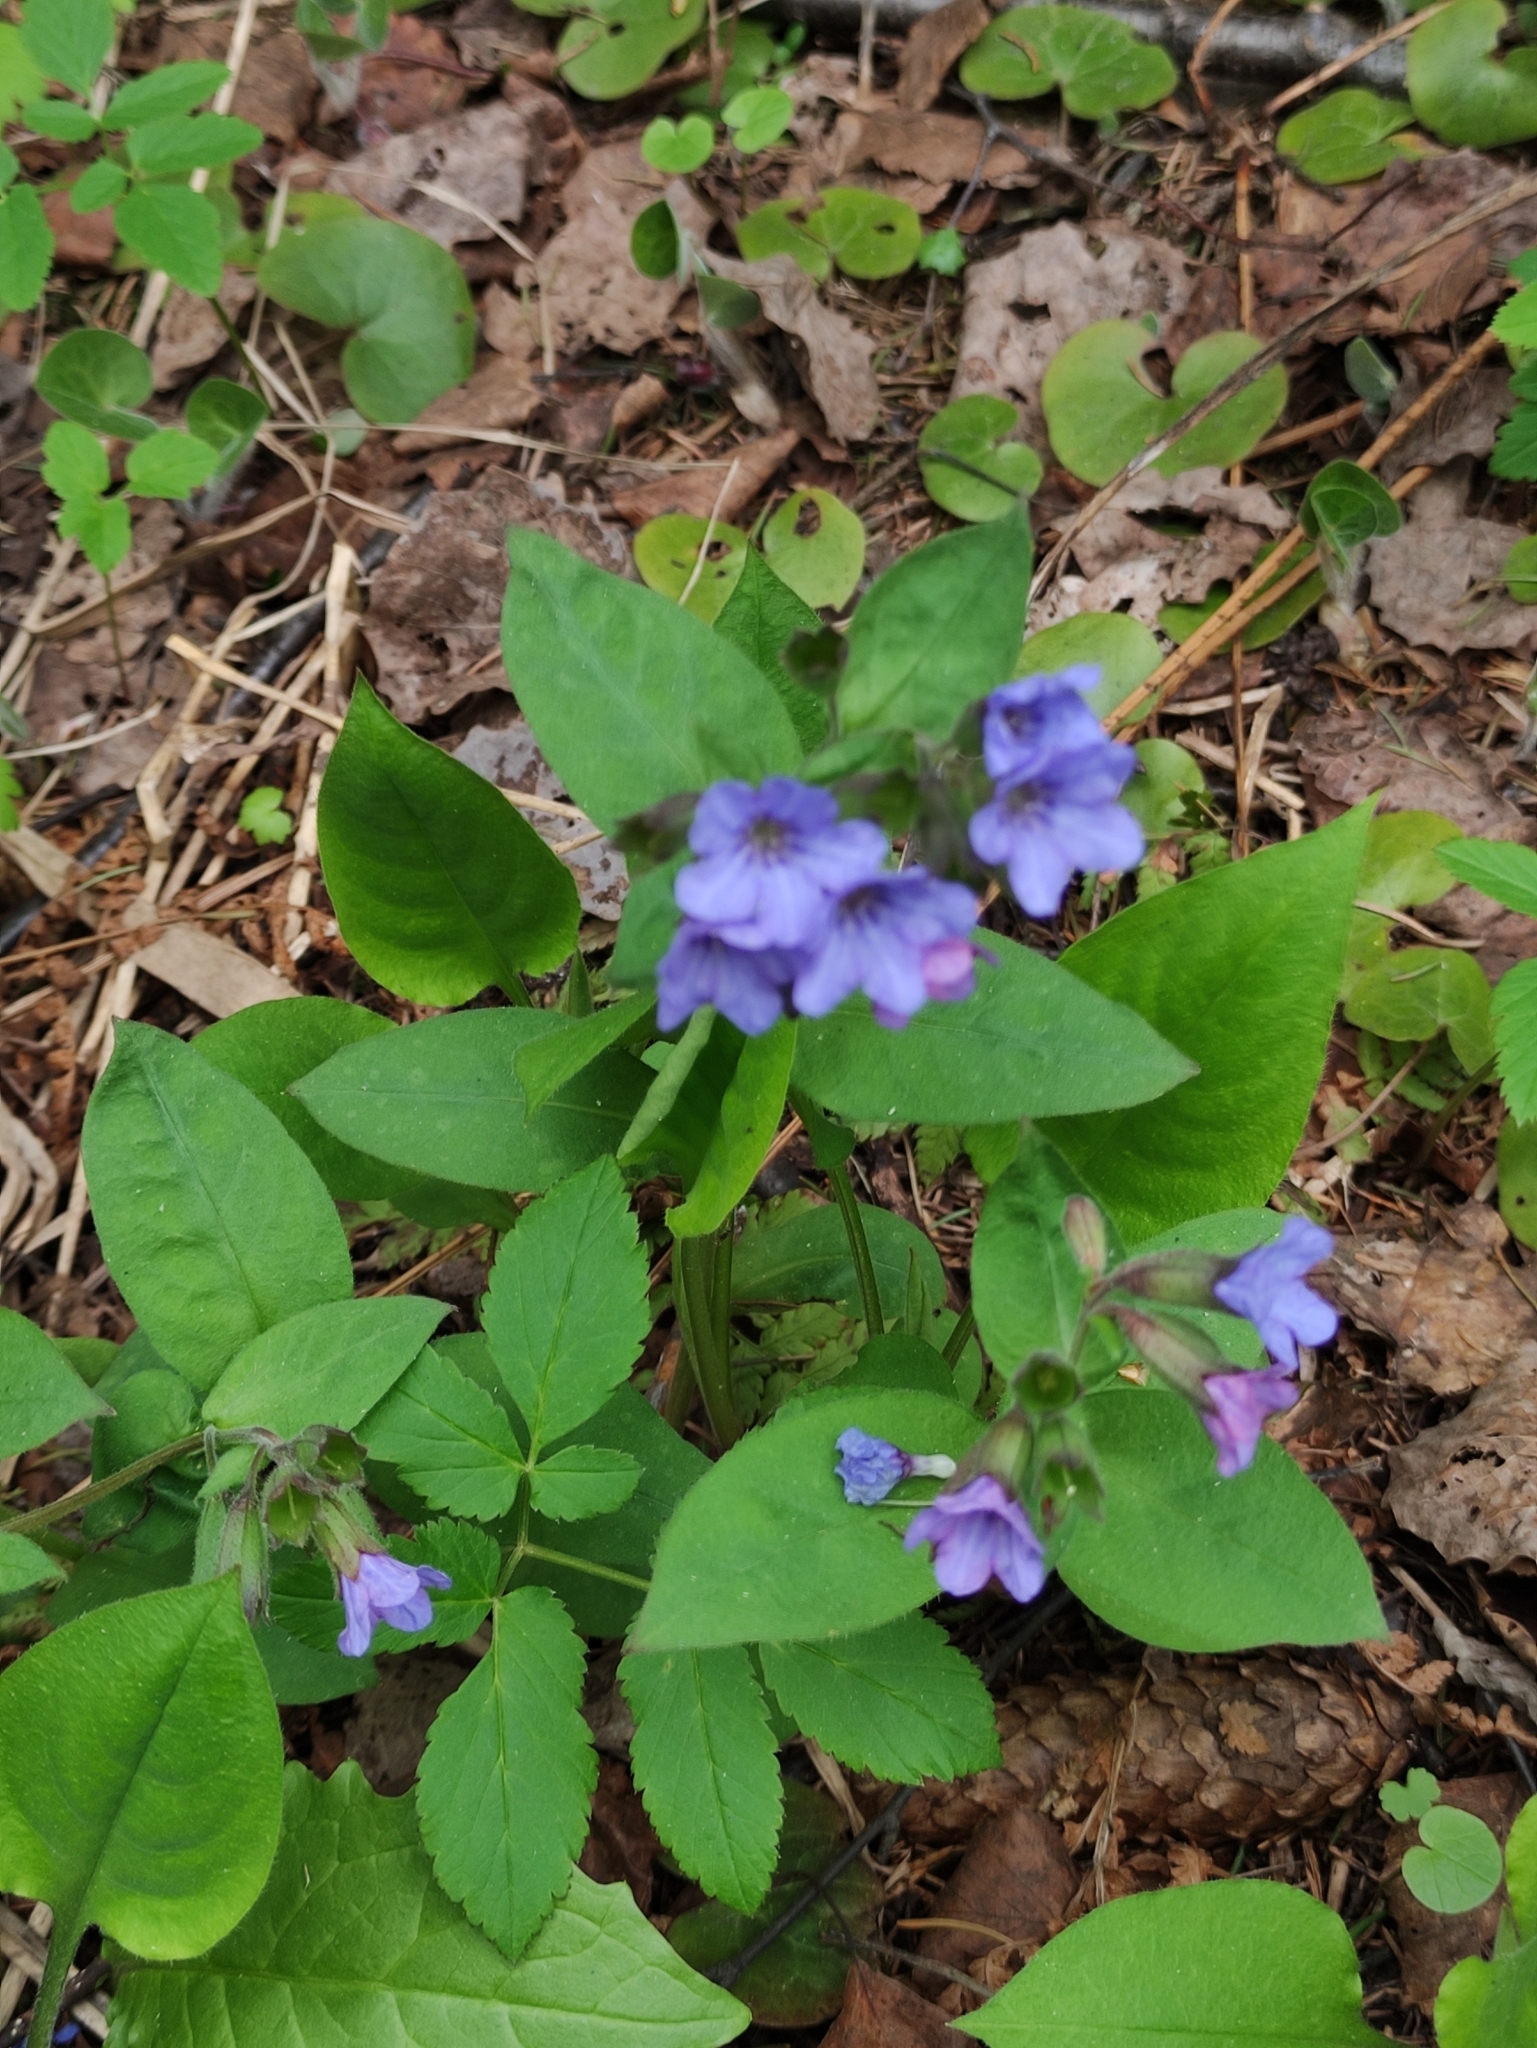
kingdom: Plantae
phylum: Tracheophyta
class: Magnoliopsida
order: Boraginales
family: Boraginaceae
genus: Pulmonaria
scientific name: Pulmonaria obscura
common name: Suffolk lungwort
